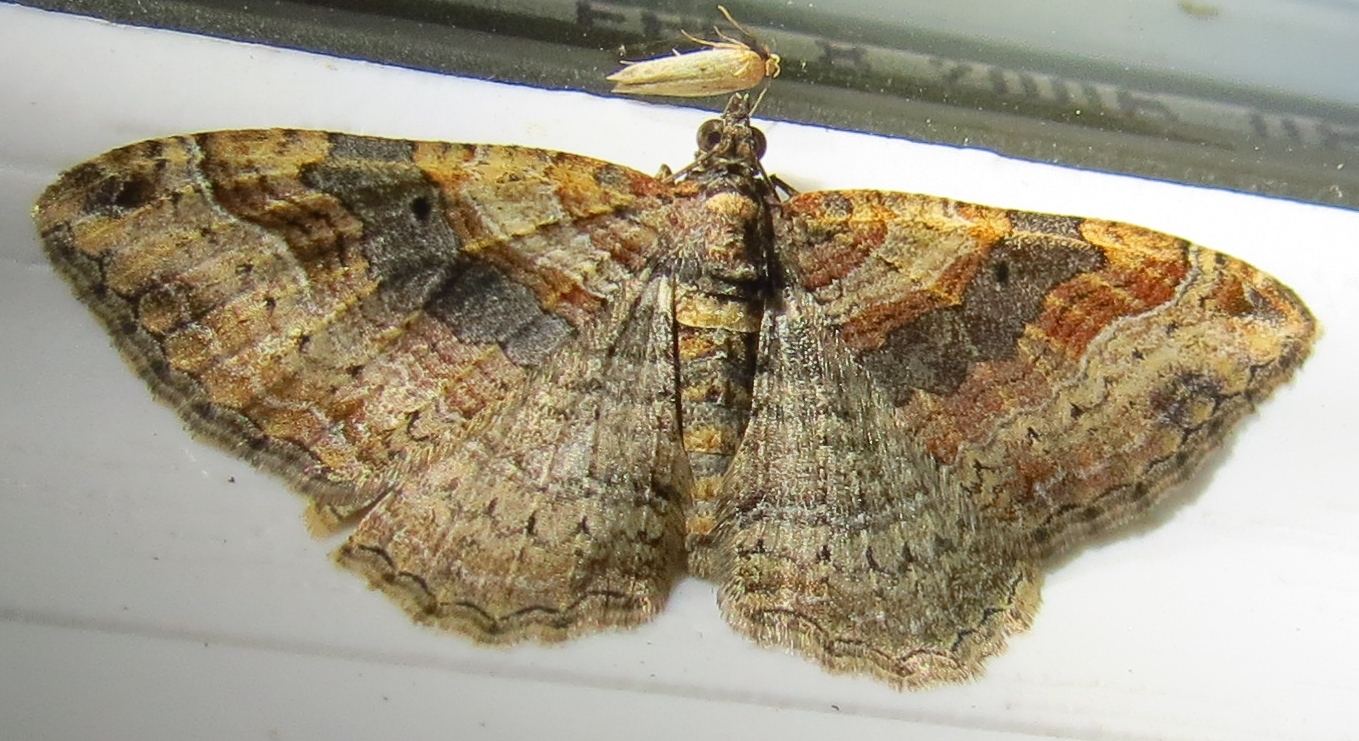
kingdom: Animalia
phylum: Arthropoda
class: Insecta
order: Lepidoptera
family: Geometridae
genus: Costaconvexa
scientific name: Costaconvexa centrostrigaria
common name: Bent-line carpet
